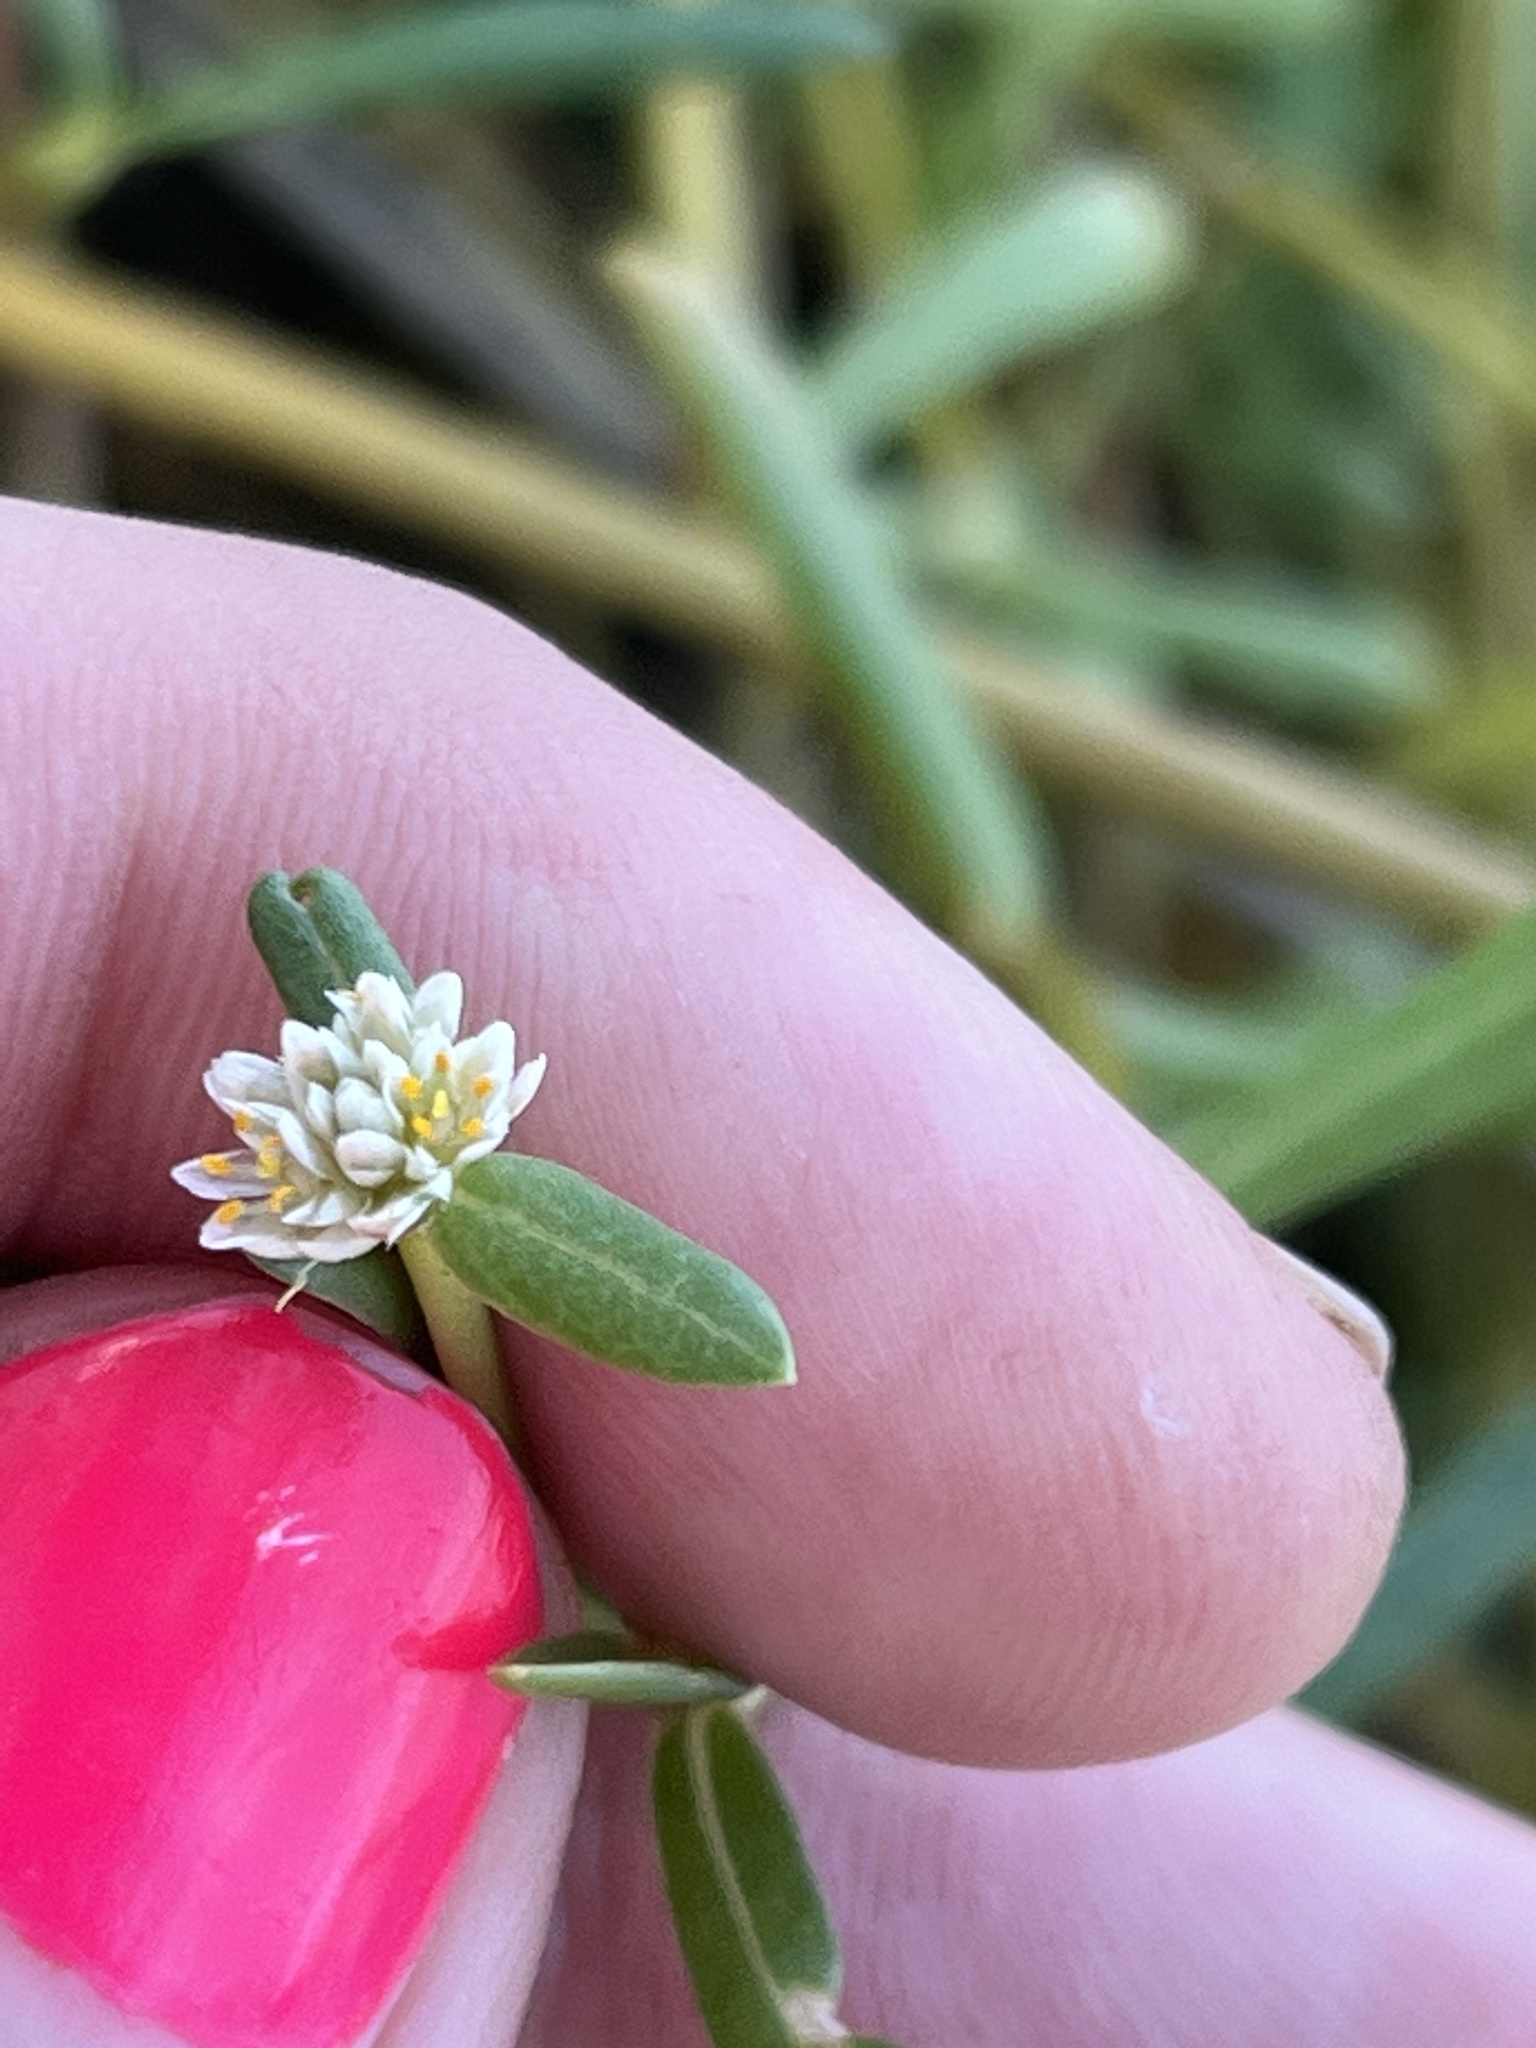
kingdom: Plantae
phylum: Tracheophyta
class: Magnoliopsida
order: Caryophyllales
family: Amaranthaceae
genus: Gomphrena
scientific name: Gomphrena vermicularis
